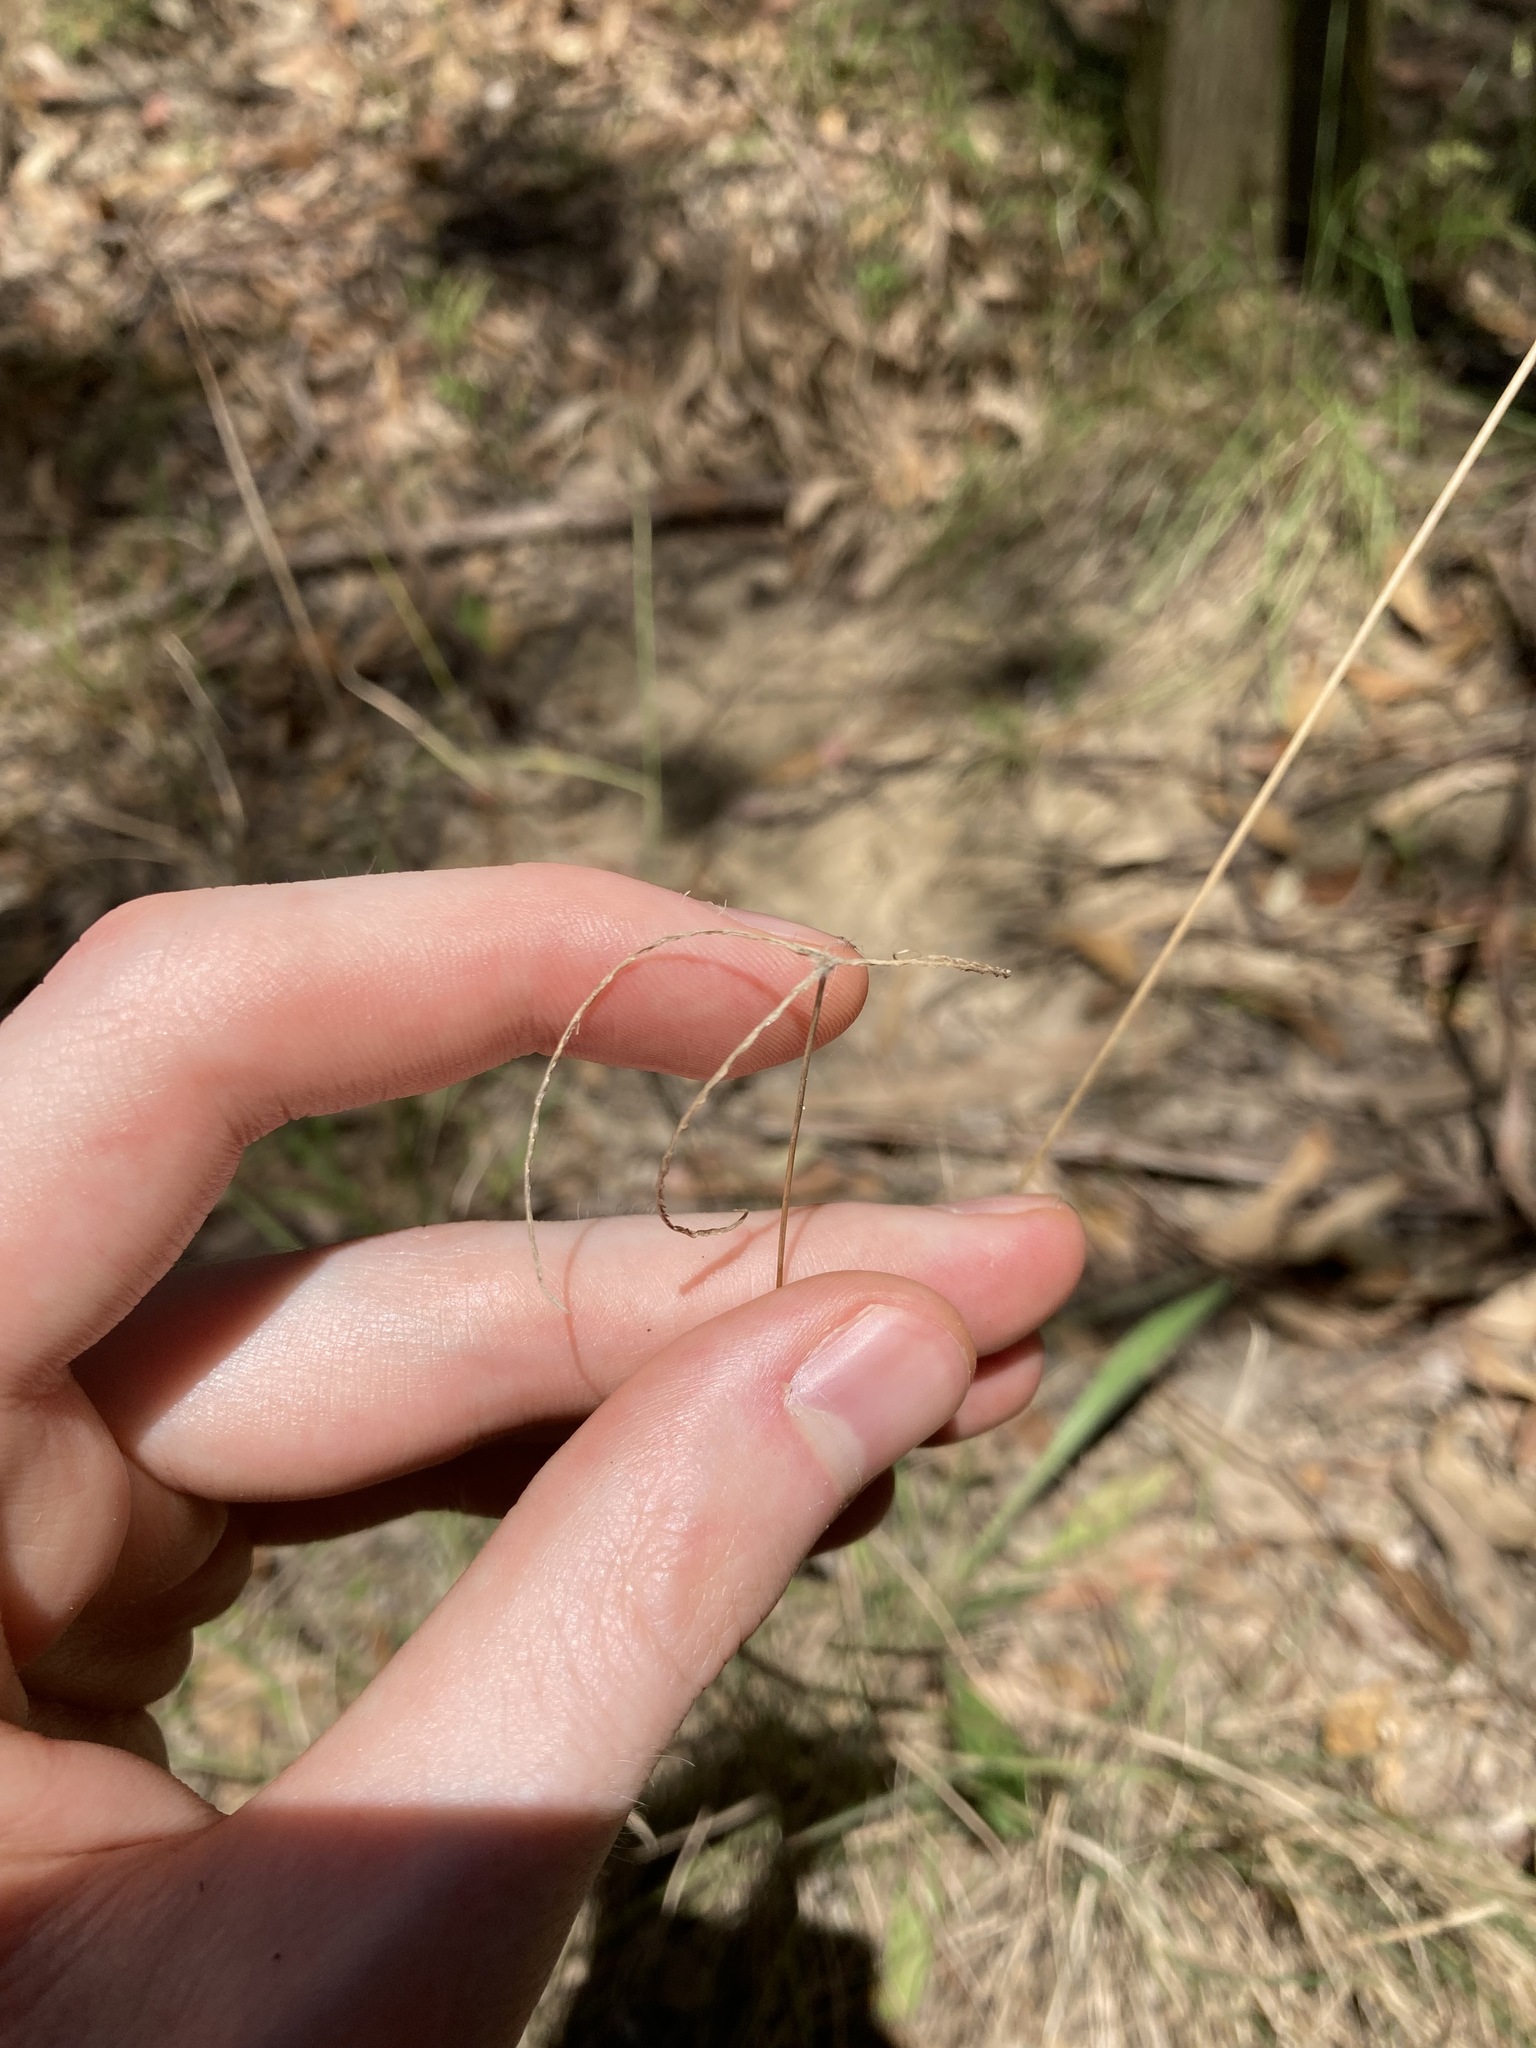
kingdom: Plantae
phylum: Tracheophyta
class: Liliopsida
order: Poales
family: Poaceae
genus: Chloris
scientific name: Chloris ventricosa
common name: Australian windmill grass
